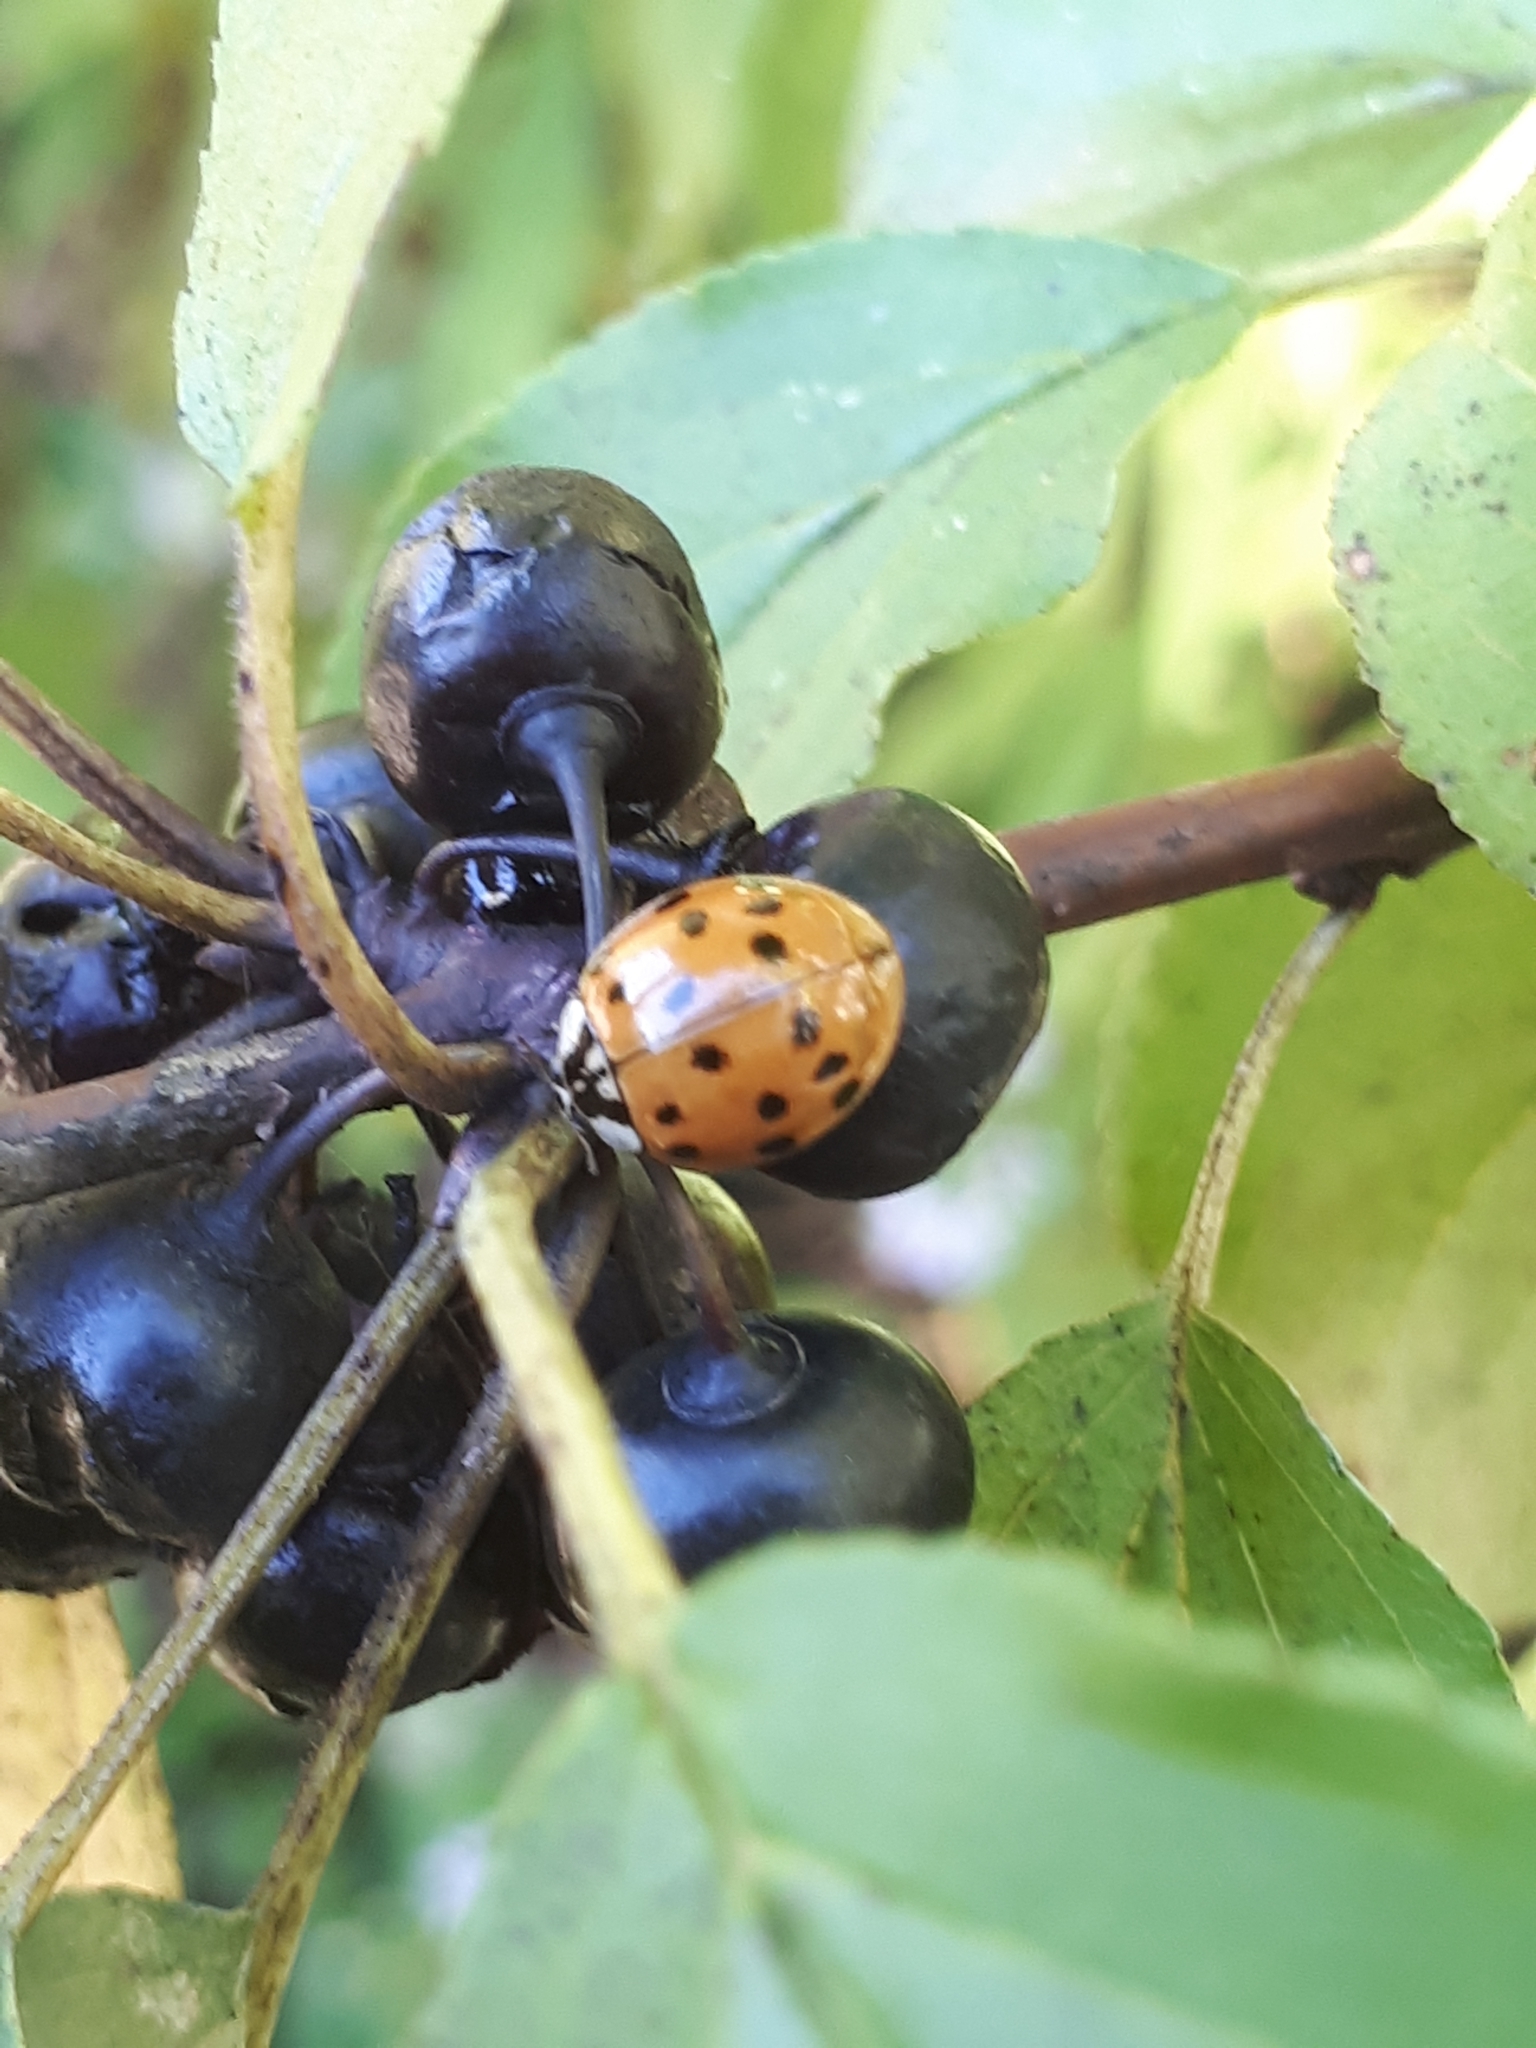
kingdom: Animalia
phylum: Arthropoda
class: Insecta
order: Coleoptera
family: Coccinellidae
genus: Harmonia
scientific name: Harmonia axyridis
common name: Harlequin ladybird
